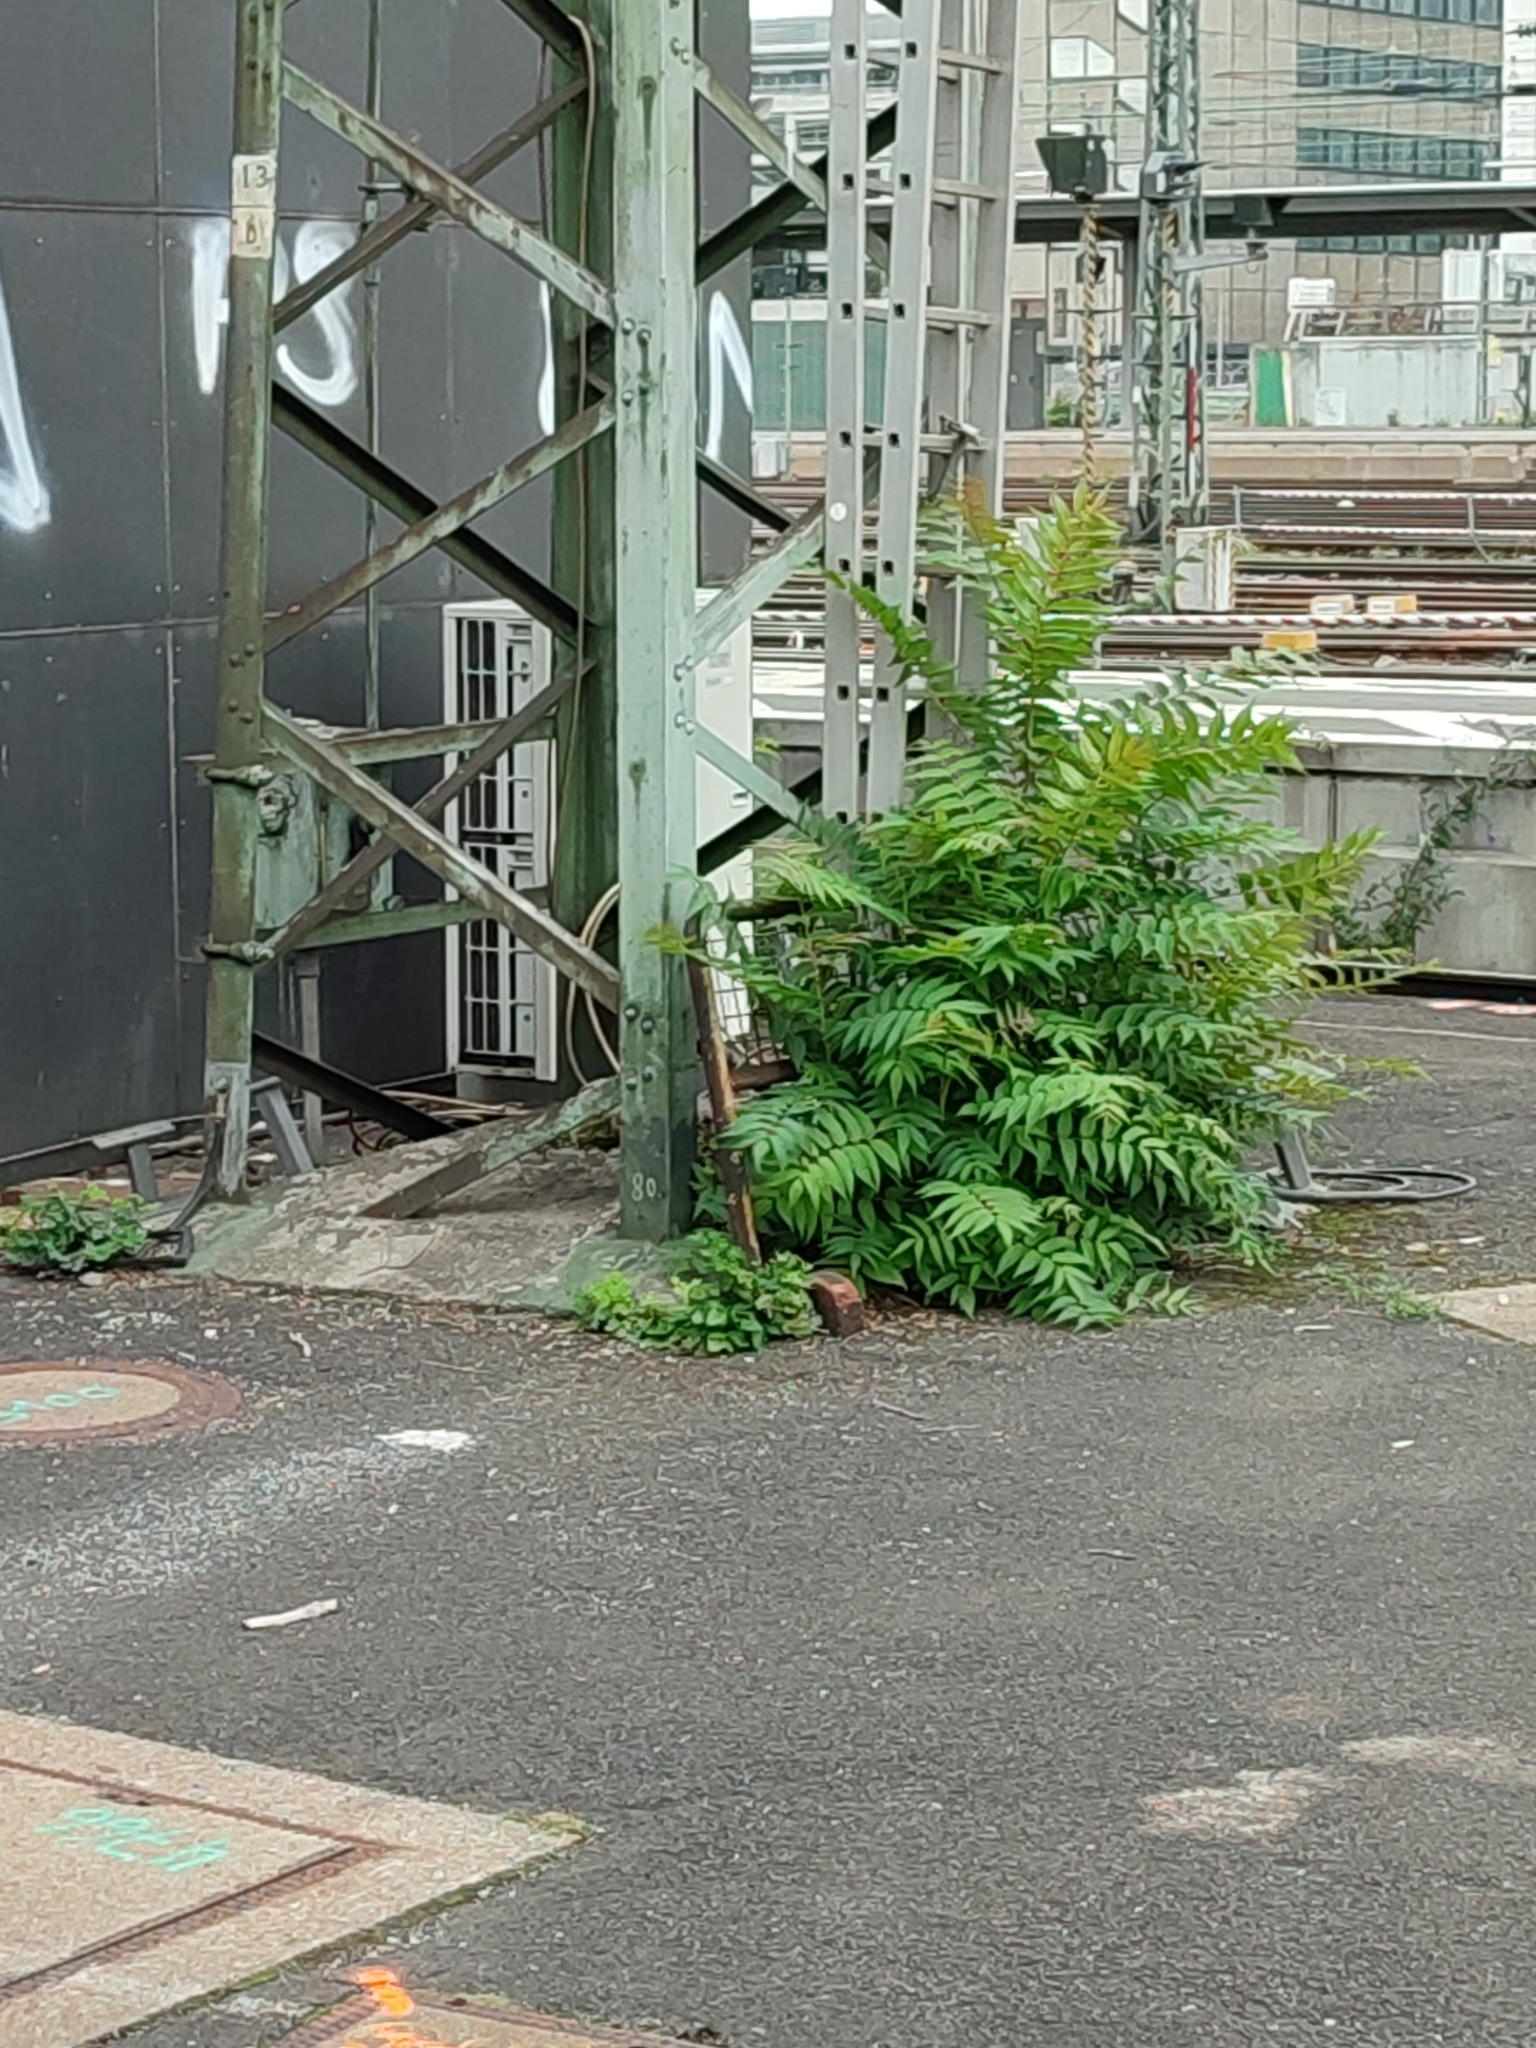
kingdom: Plantae
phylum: Tracheophyta
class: Magnoliopsida
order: Sapindales
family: Simaroubaceae
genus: Ailanthus
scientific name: Ailanthus altissima
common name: Tree-of-heaven
